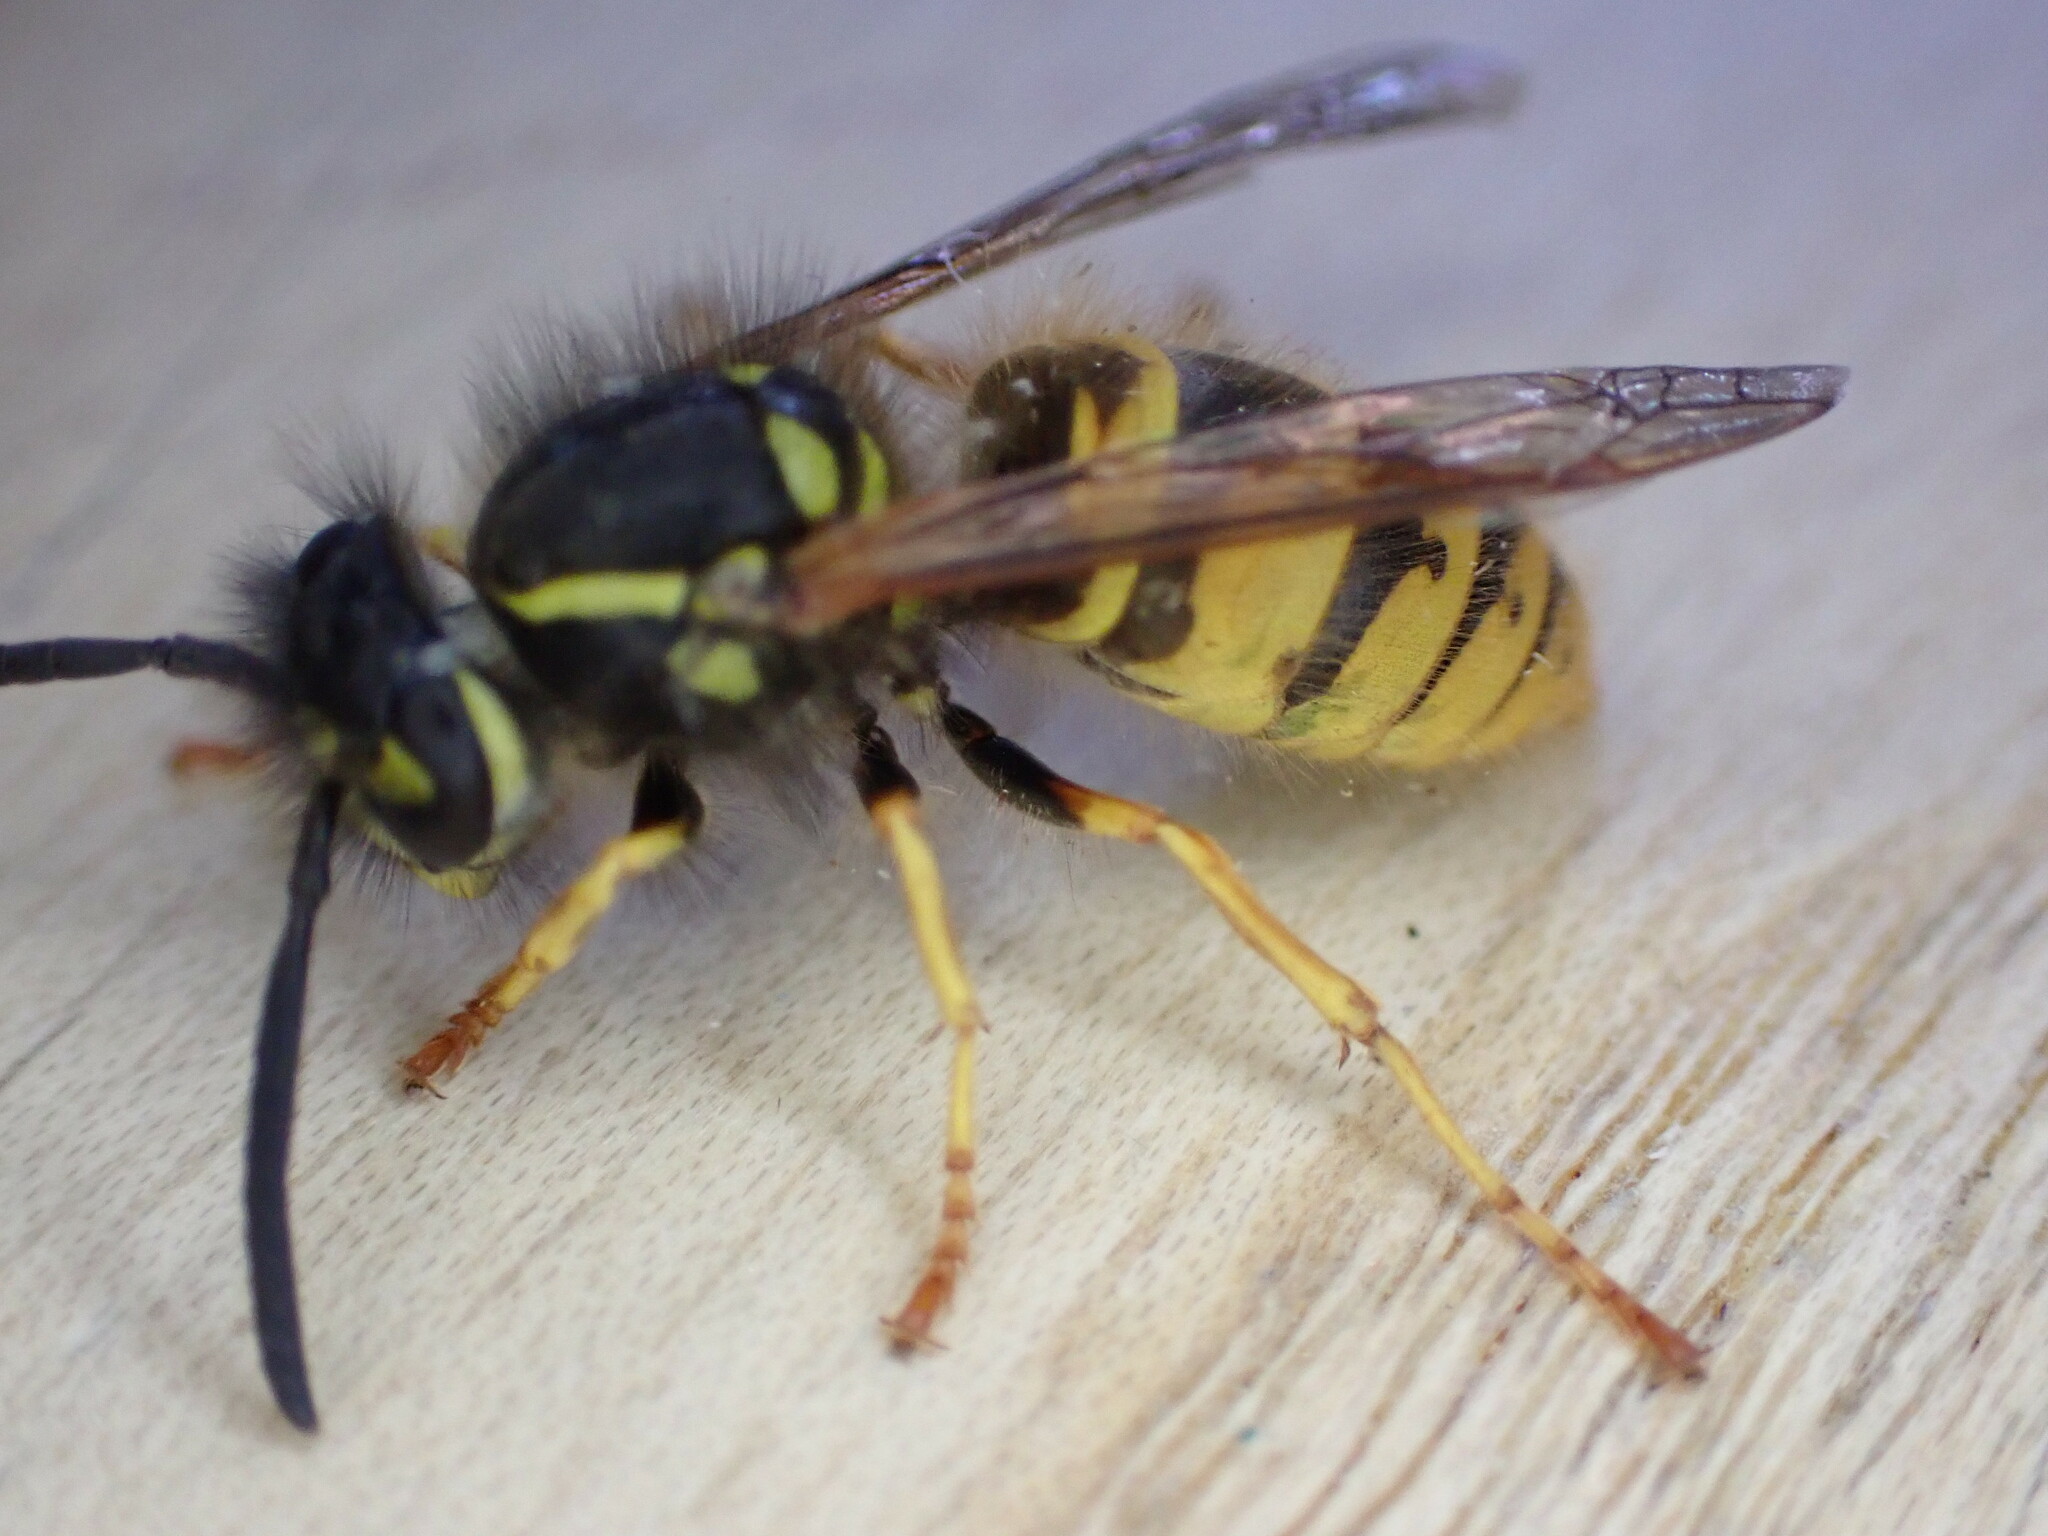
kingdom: Animalia
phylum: Arthropoda
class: Insecta
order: Hymenoptera
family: Vespidae
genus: Vespula
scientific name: Vespula vulgaris
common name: Common wasp
